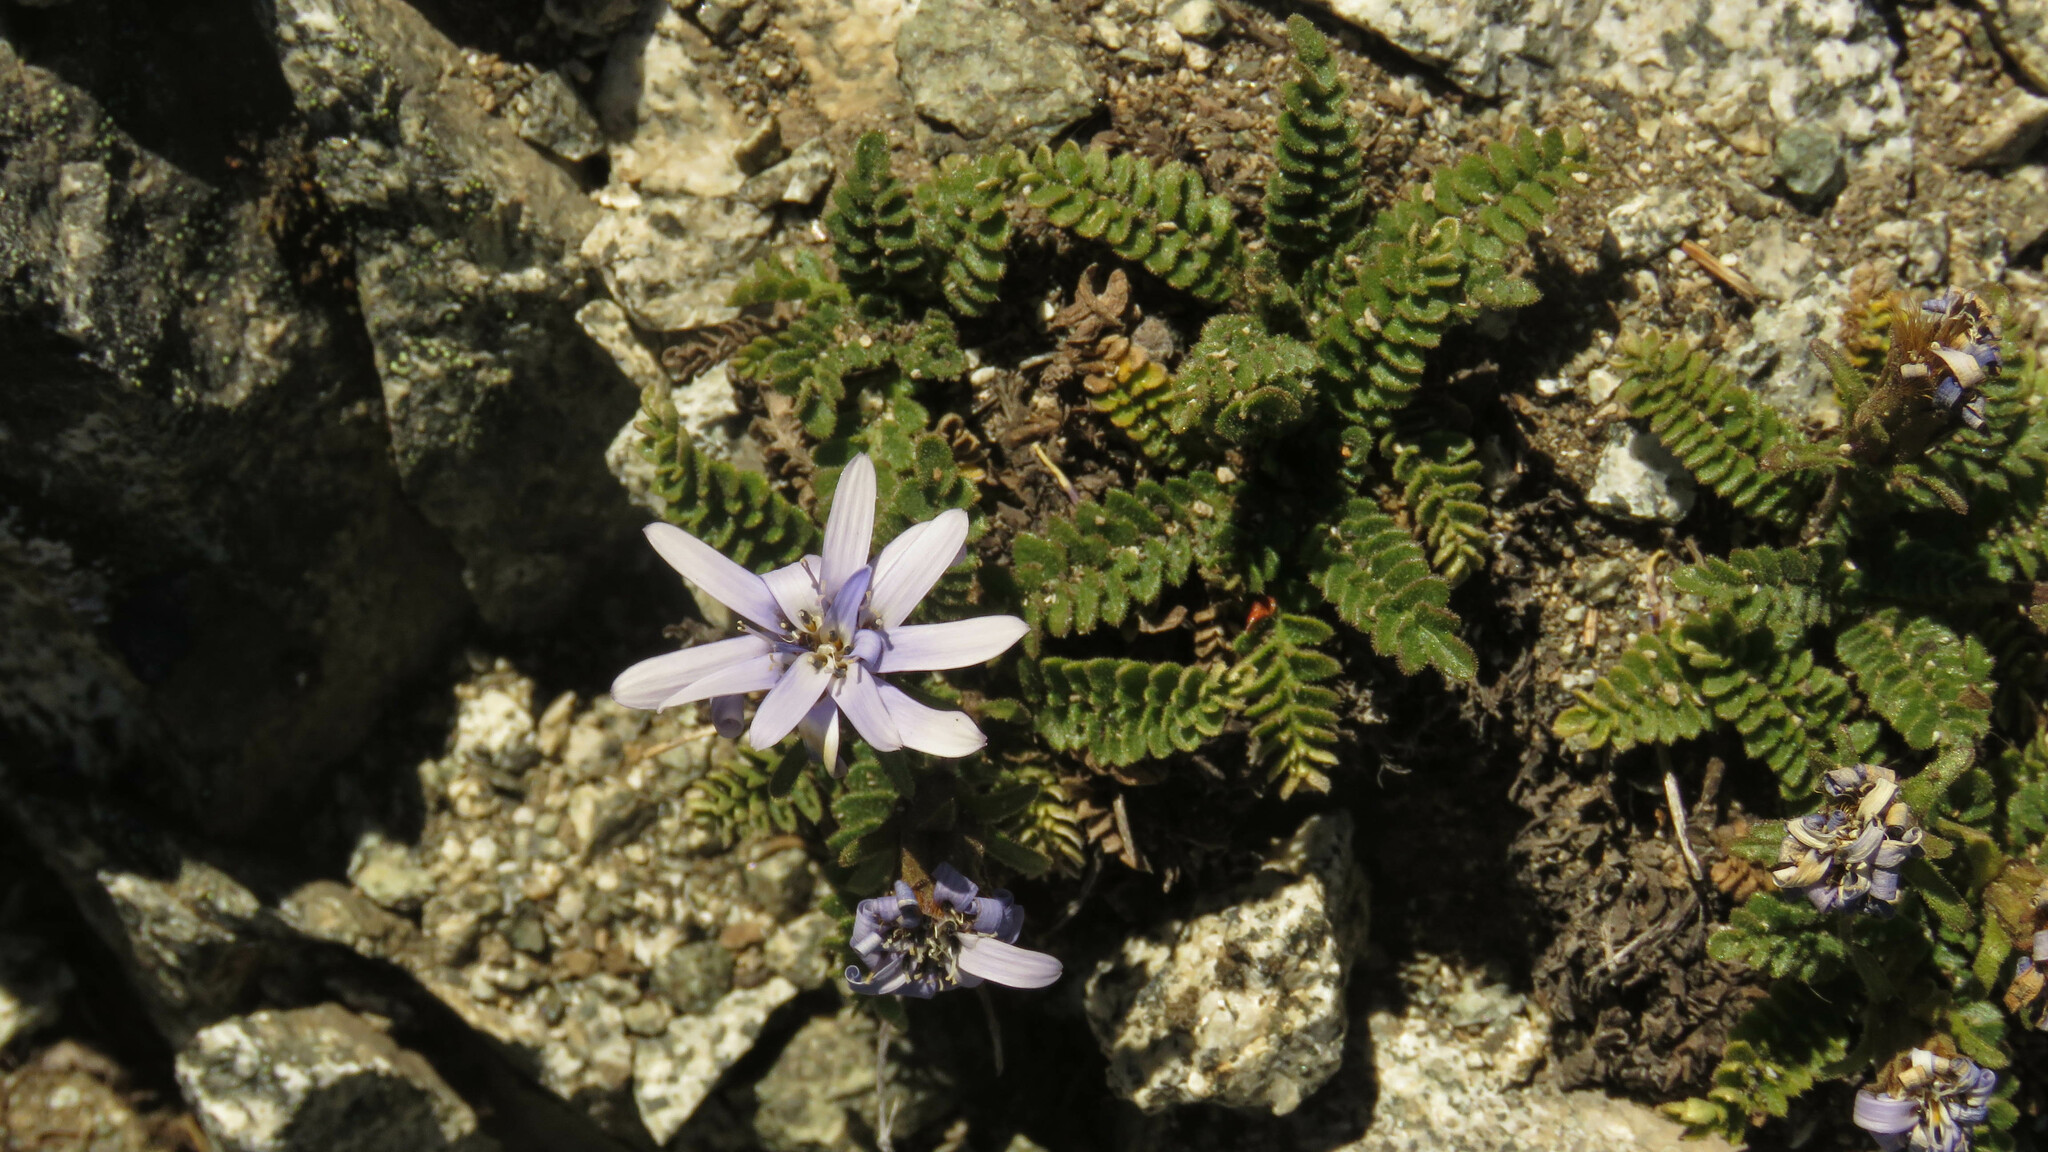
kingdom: Plantae
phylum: Tracheophyta
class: Magnoliopsida
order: Asterales
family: Asteraceae
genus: Perezia
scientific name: Perezia fonckii
